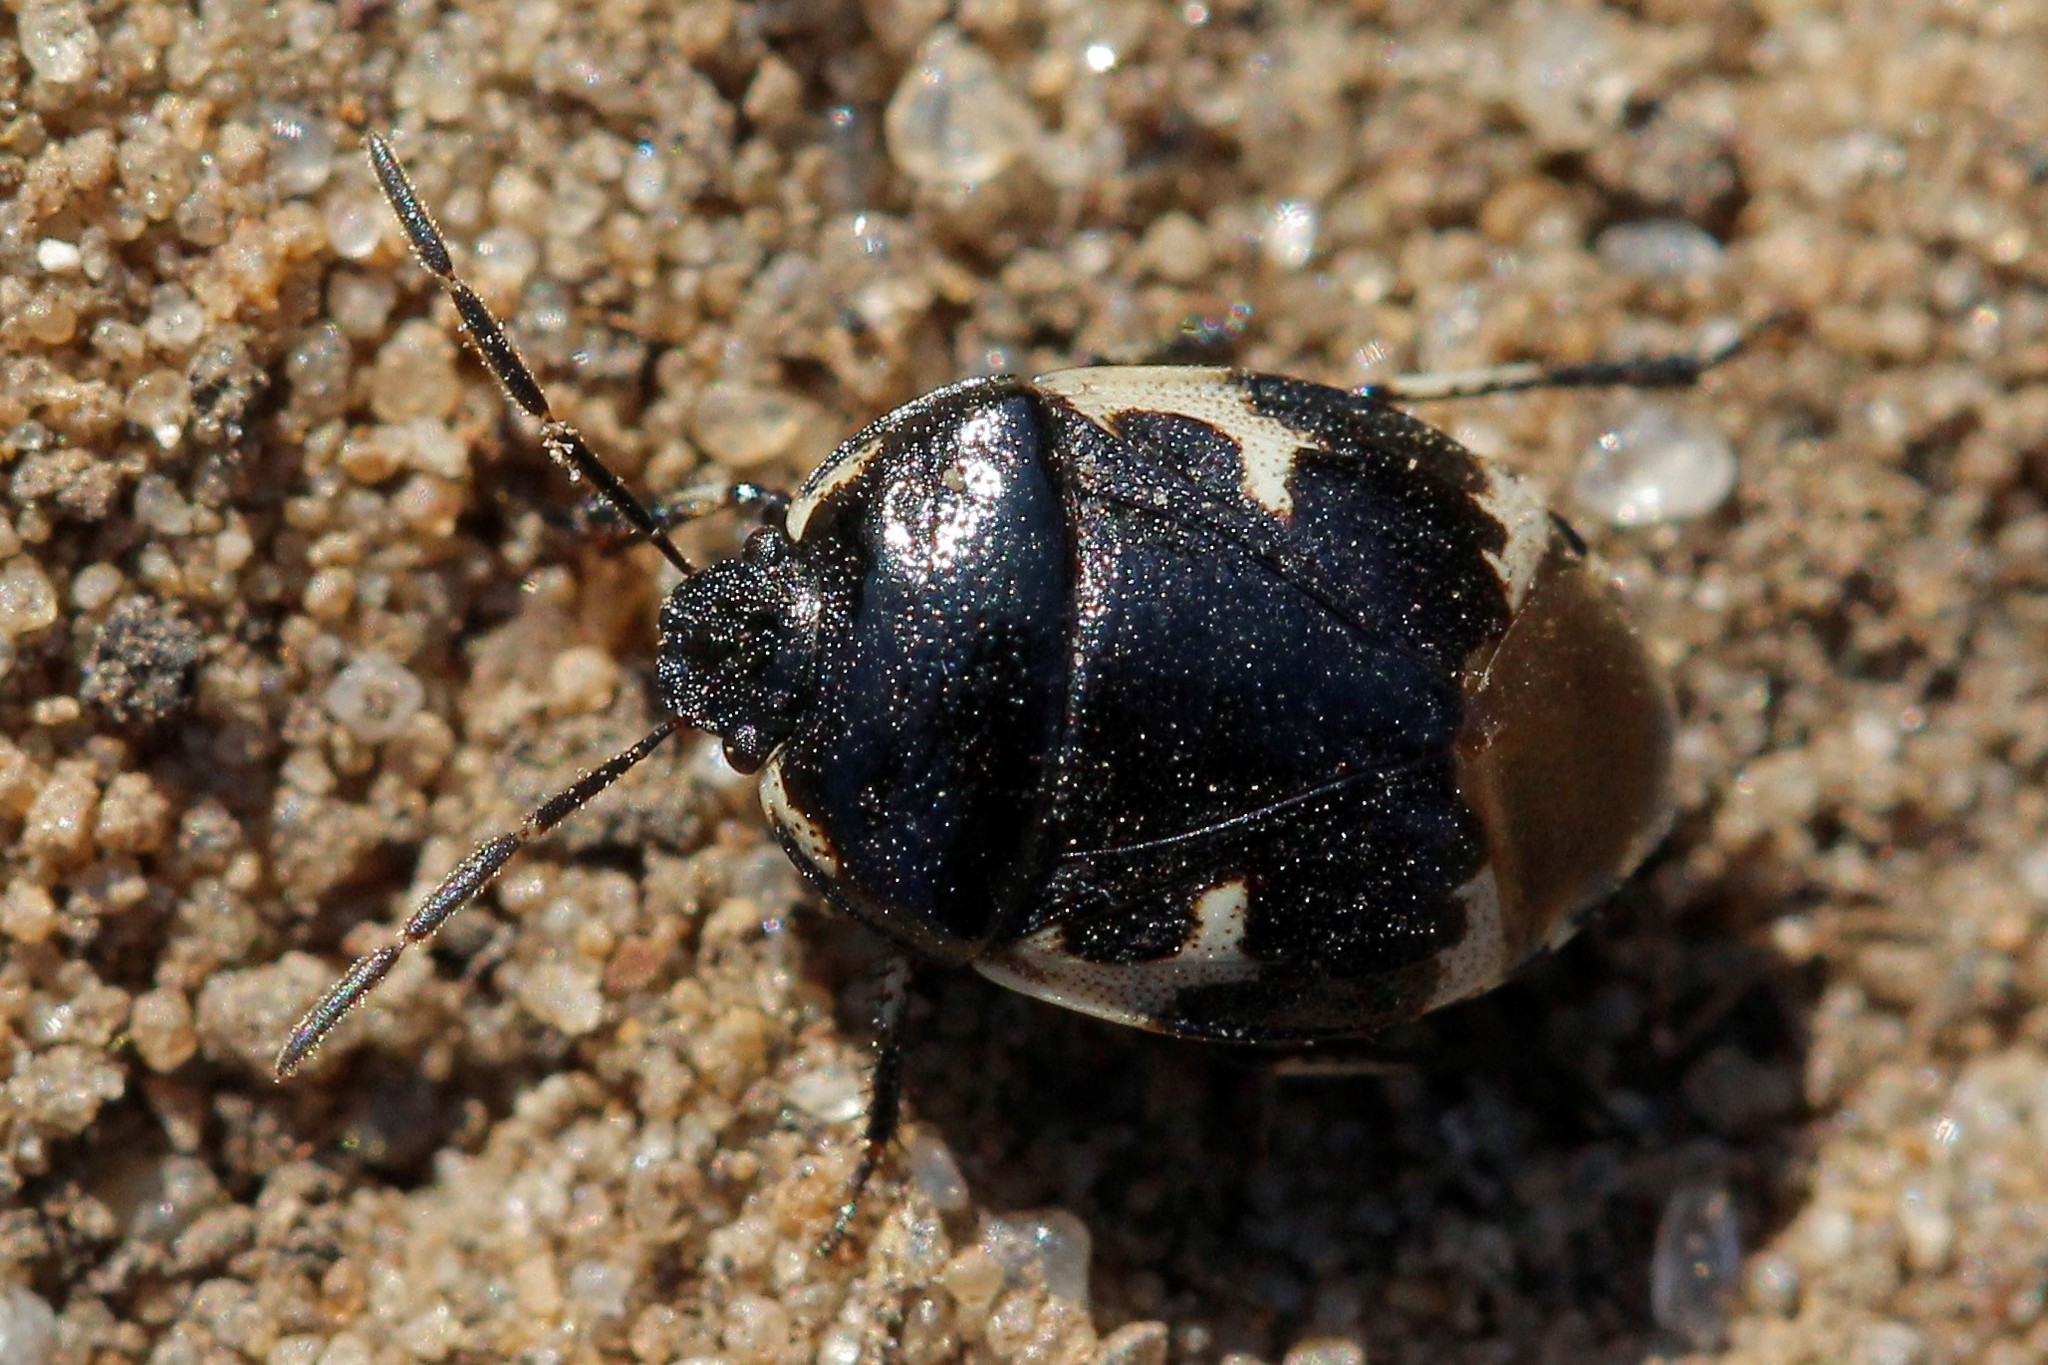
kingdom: Animalia
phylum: Arthropoda
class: Insecta
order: Hemiptera
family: Cydnidae
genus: Tritomegas
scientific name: Tritomegas bicolor
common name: Pied shieldbug
